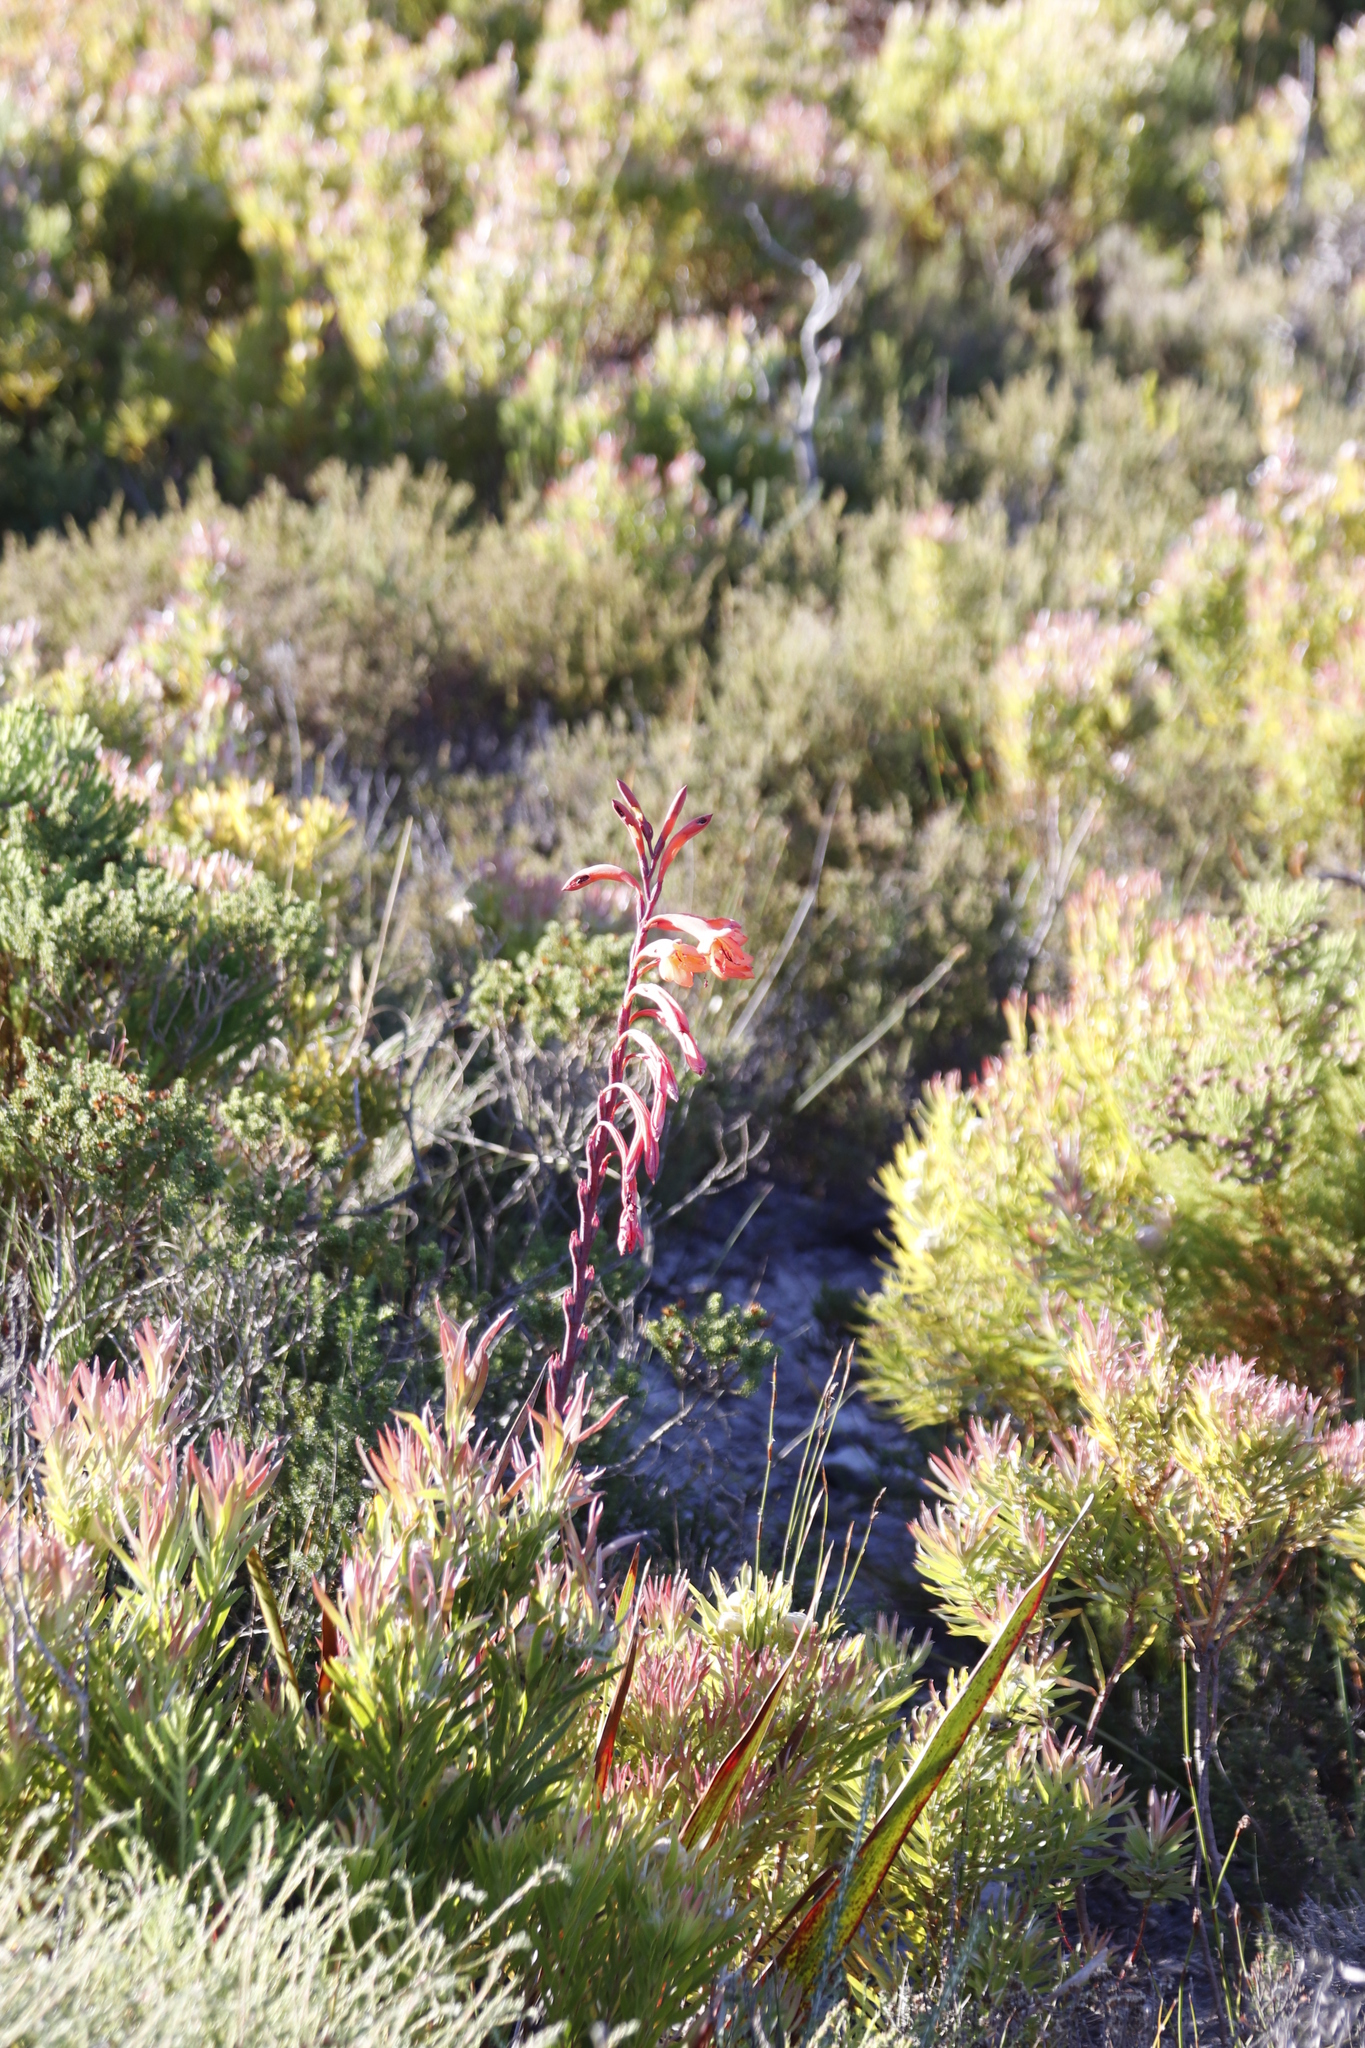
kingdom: Plantae
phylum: Tracheophyta
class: Liliopsida
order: Asparagales
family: Iridaceae
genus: Watsonia
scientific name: Watsonia tabularis
